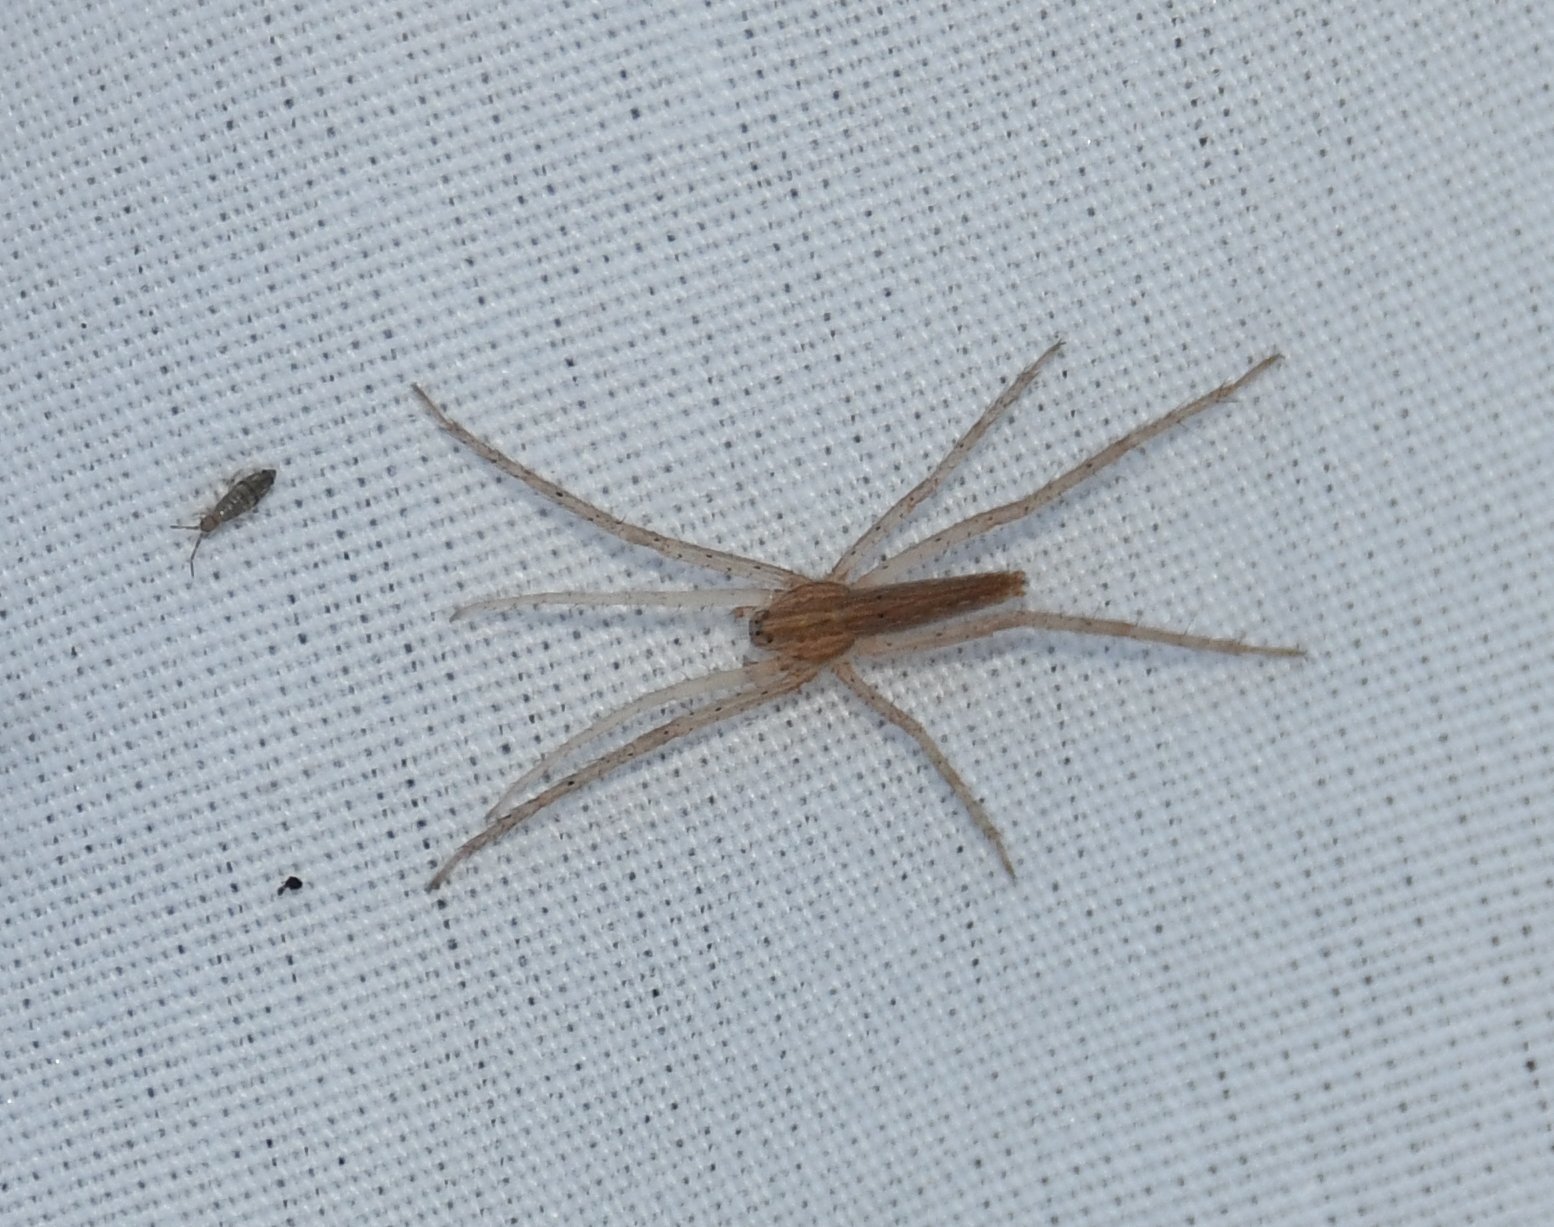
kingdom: Animalia
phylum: Arthropoda
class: Arachnida
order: Araneae
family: Pisauridae
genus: Pisaurina
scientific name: Pisaurina undulata
